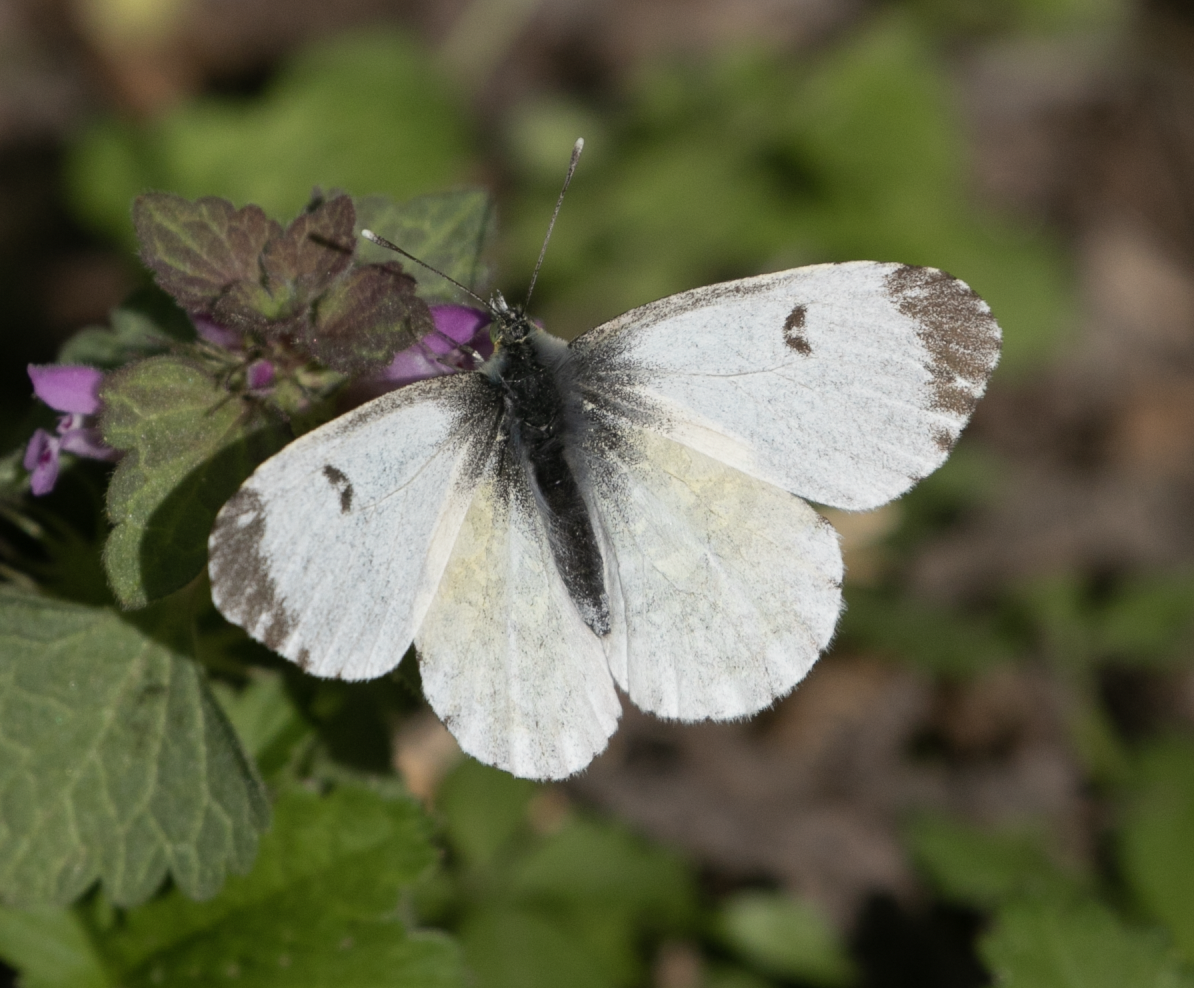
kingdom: Animalia
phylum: Arthropoda
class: Insecta
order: Lepidoptera
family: Pieridae
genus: Anthocharis
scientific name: Anthocharis cardamines
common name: Orange-tip
